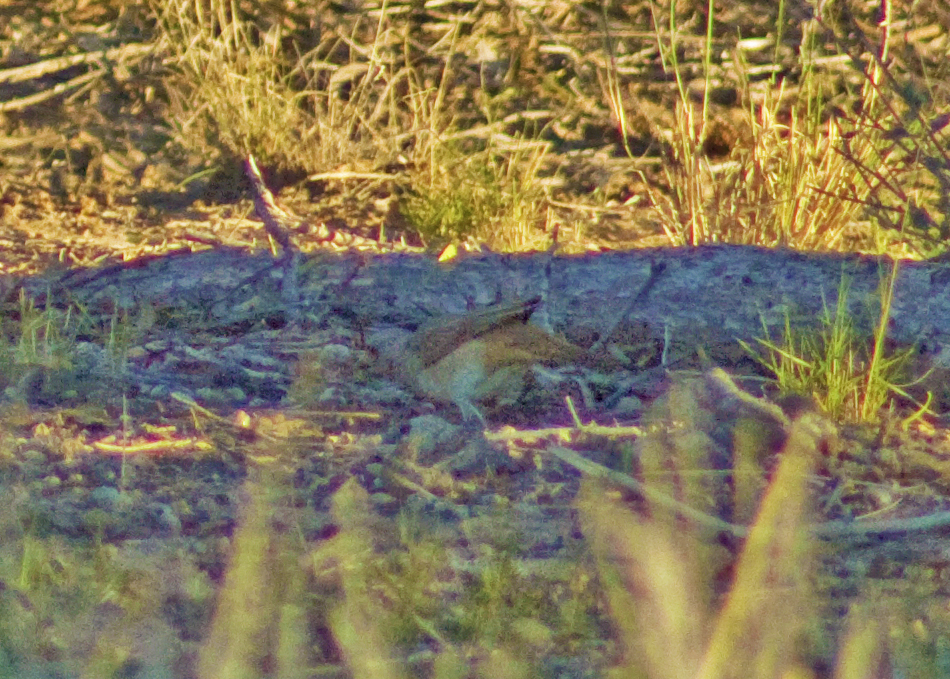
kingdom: Animalia
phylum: Chordata
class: Aves
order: Passeriformes
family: Oreoicidae
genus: Oreoica
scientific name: Oreoica gutturalis
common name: Crested bellbird
